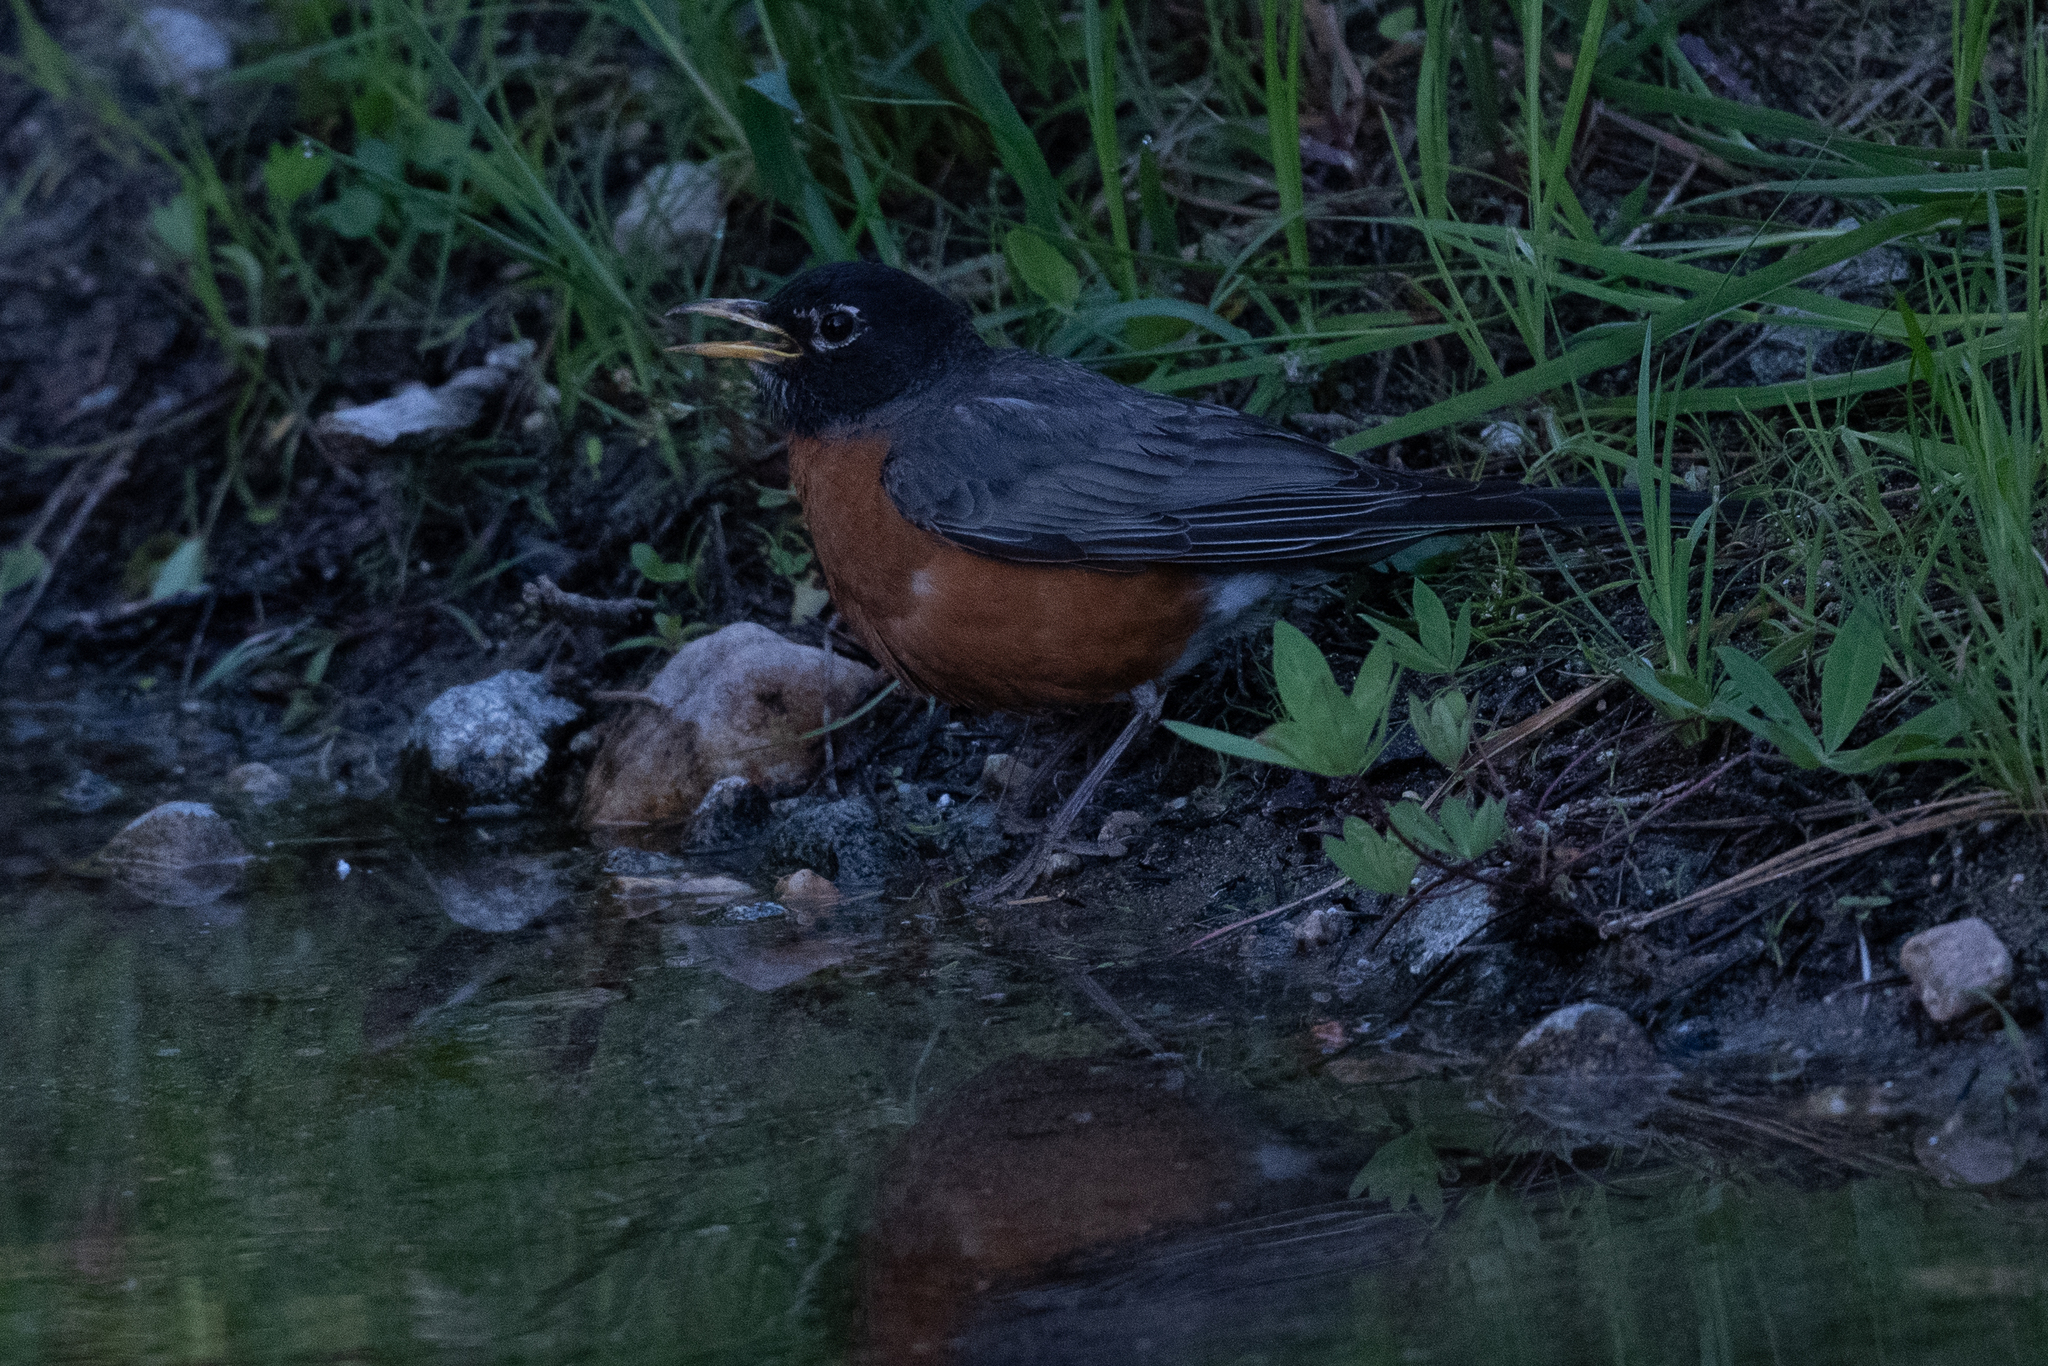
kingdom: Animalia
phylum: Chordata
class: Aves
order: Passeriformes
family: Turdidae
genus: Turdus
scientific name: Turdus migratorius
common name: American robin
